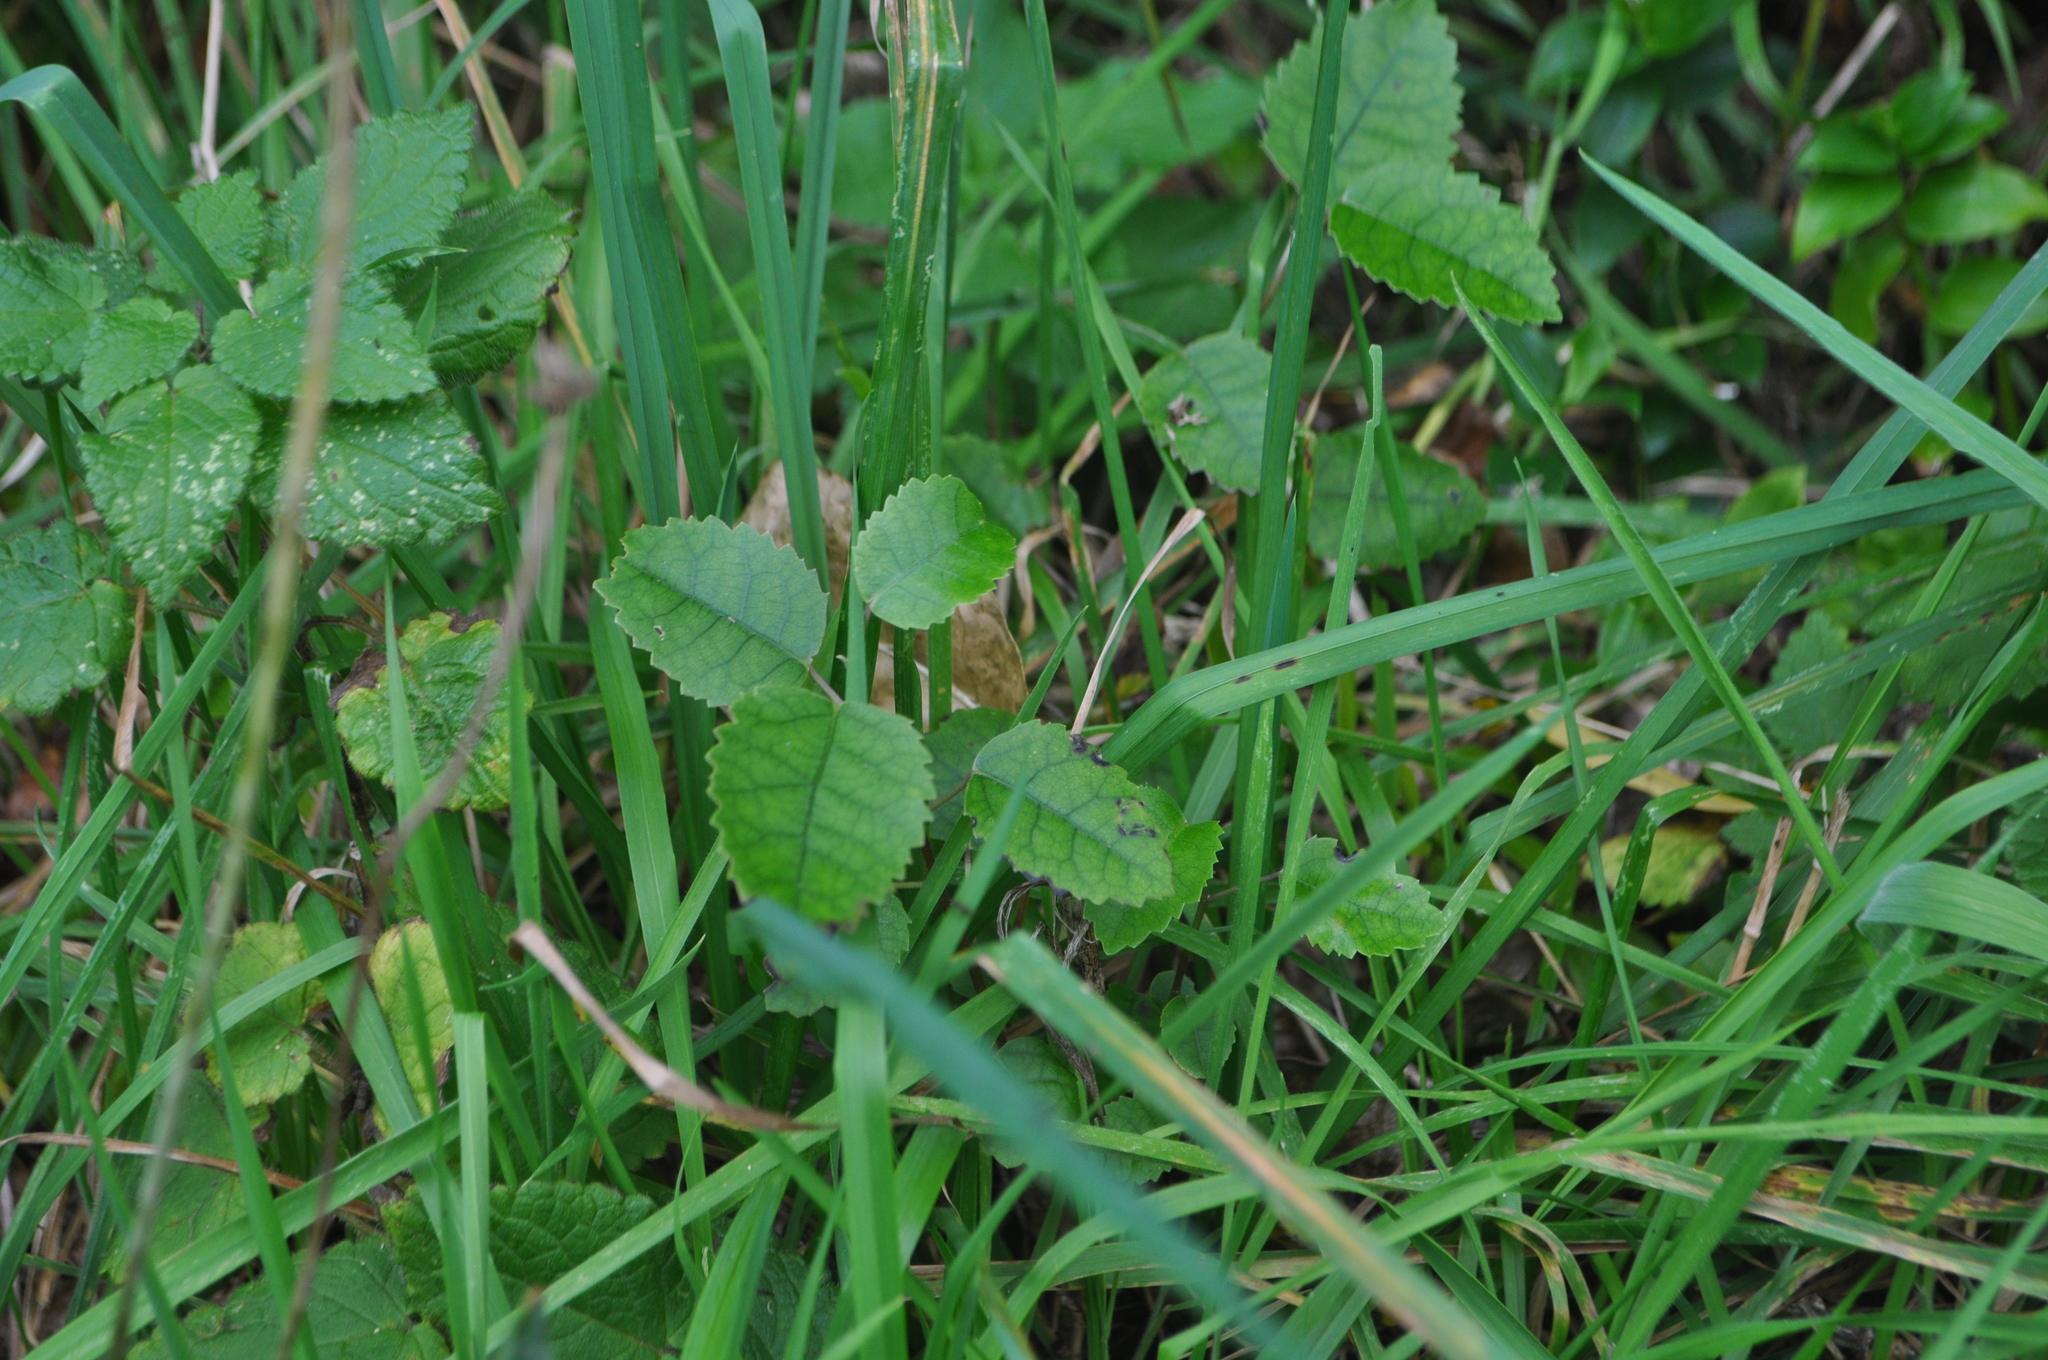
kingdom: Plantae
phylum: Tracheophyta
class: Magnoliopsida
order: Malvales
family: Malvaceae
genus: Hoheria
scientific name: Hoheria populnea
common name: Lacebark
